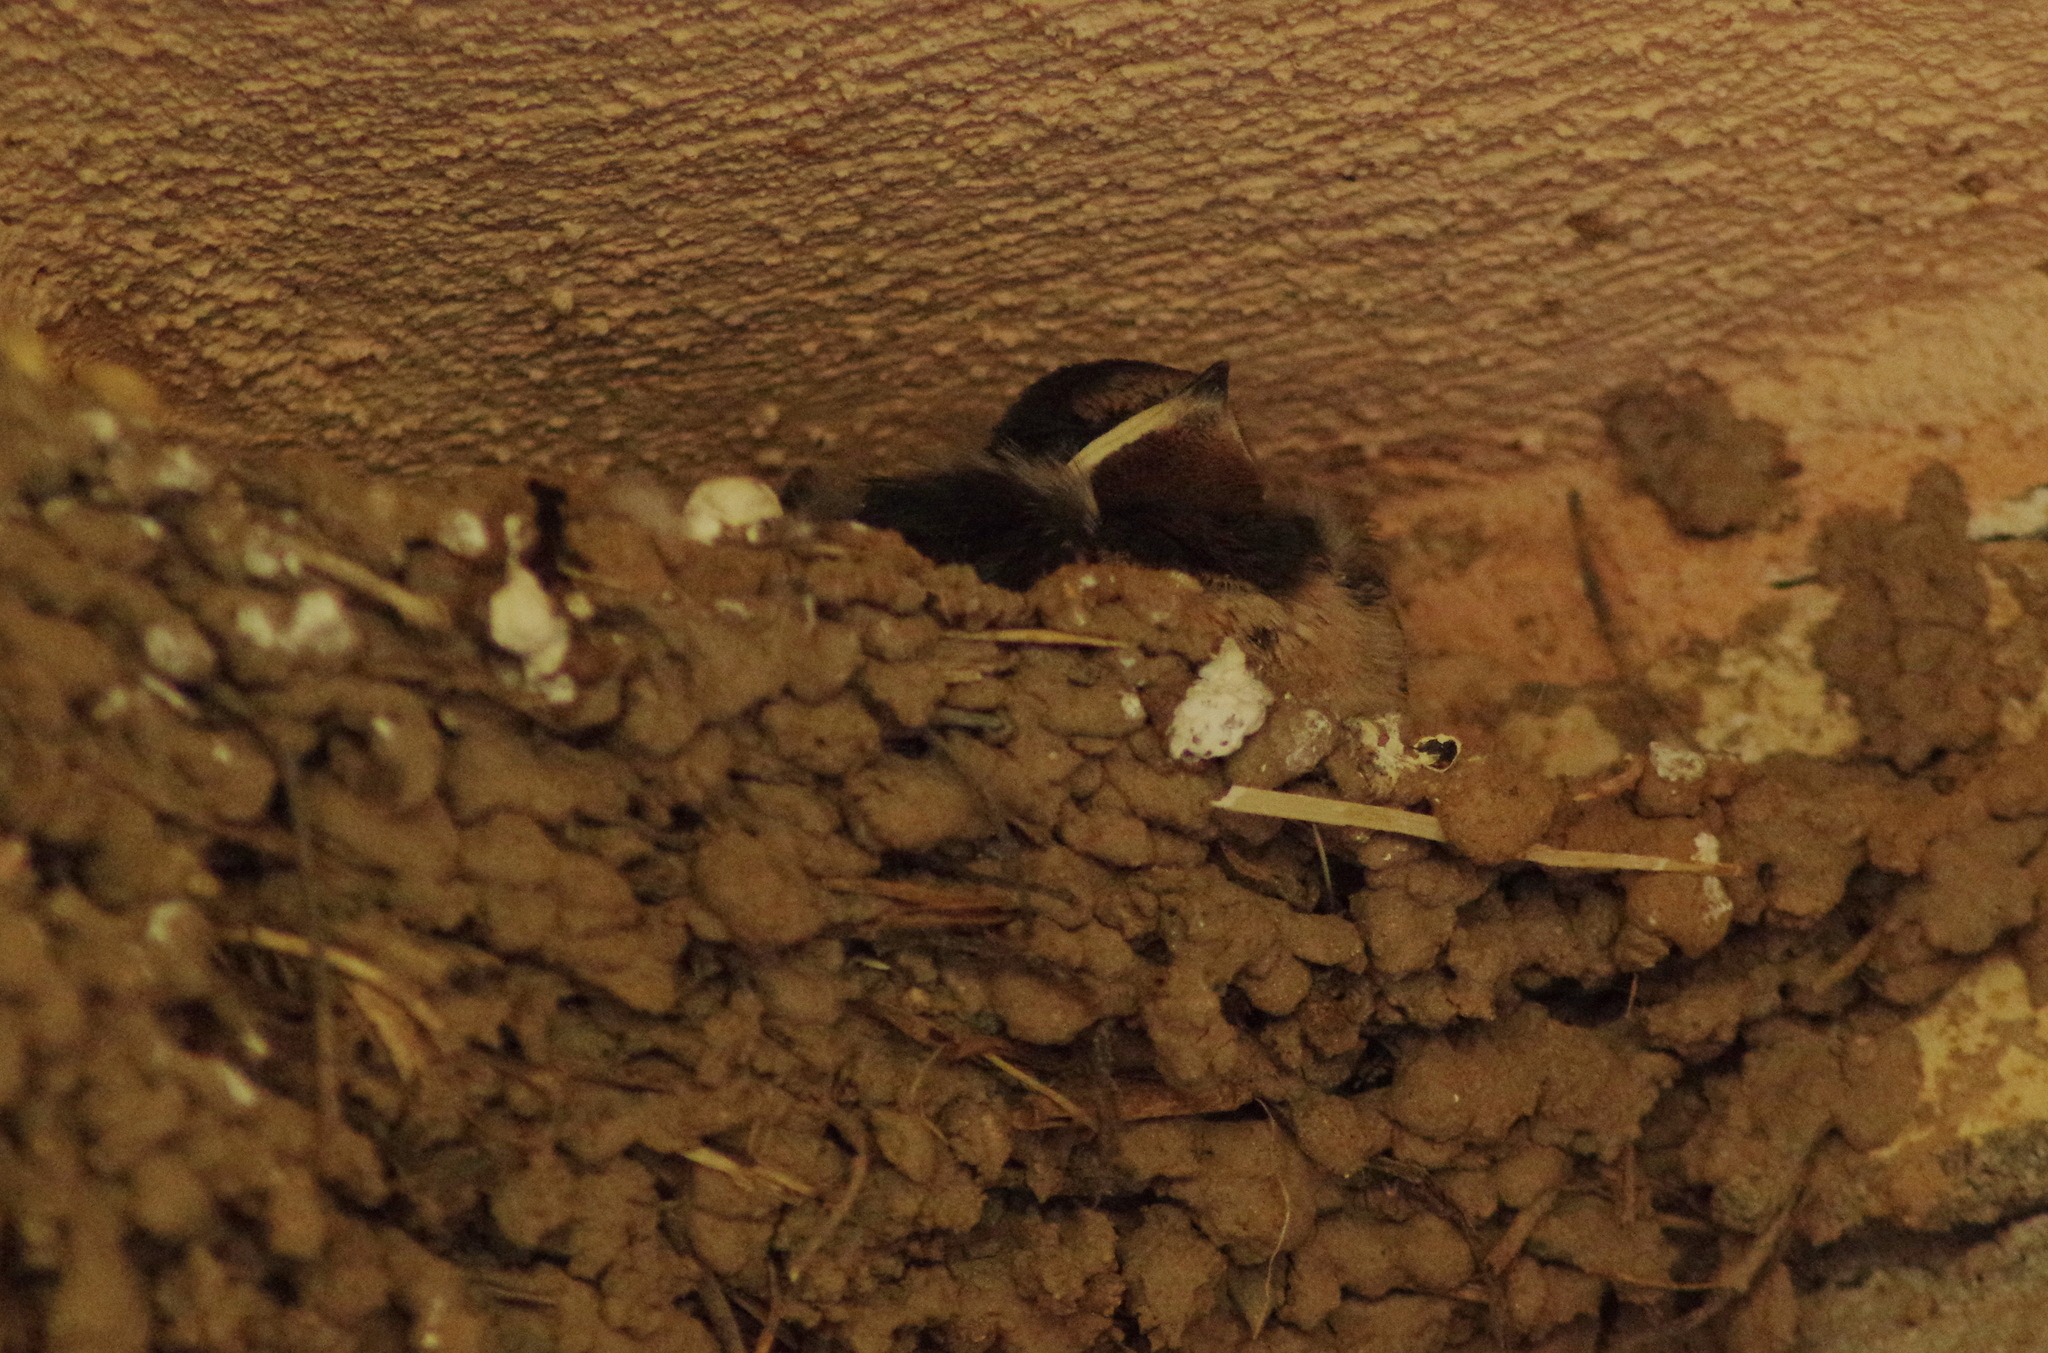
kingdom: Animalia
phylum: Chordata
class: Aves
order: Passeriformes
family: Hirundinidae
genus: Hirundo
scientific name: Hirundo rustica
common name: Barn swallow
